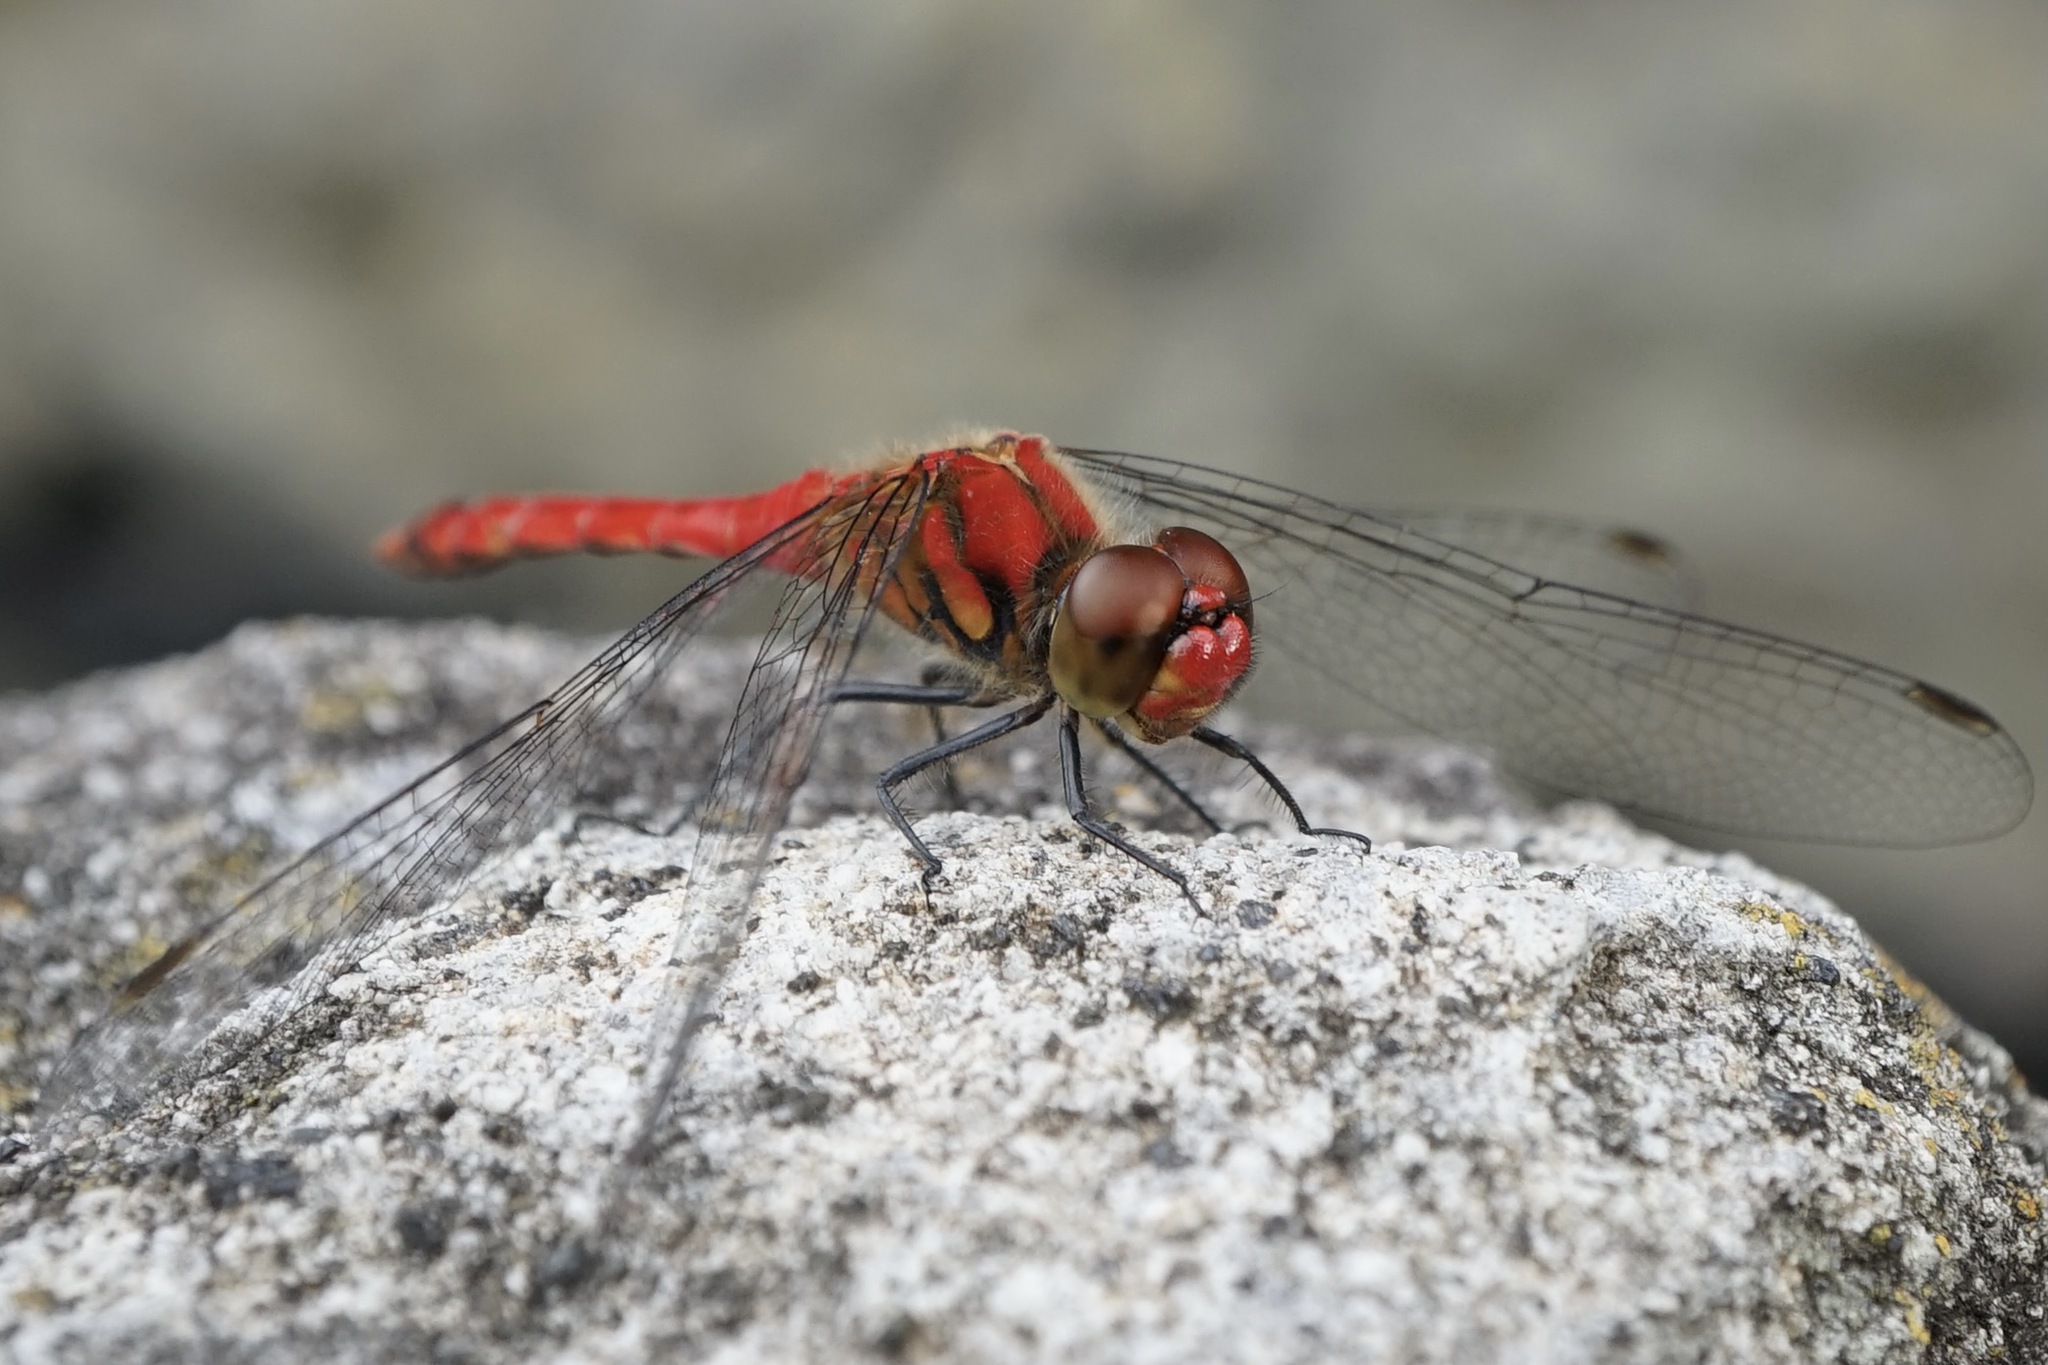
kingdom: Animalia
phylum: Arthropoda
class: Insecta
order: Odonata
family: Libellulidae
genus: Sympetrum
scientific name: Sympetrum darwinianum
